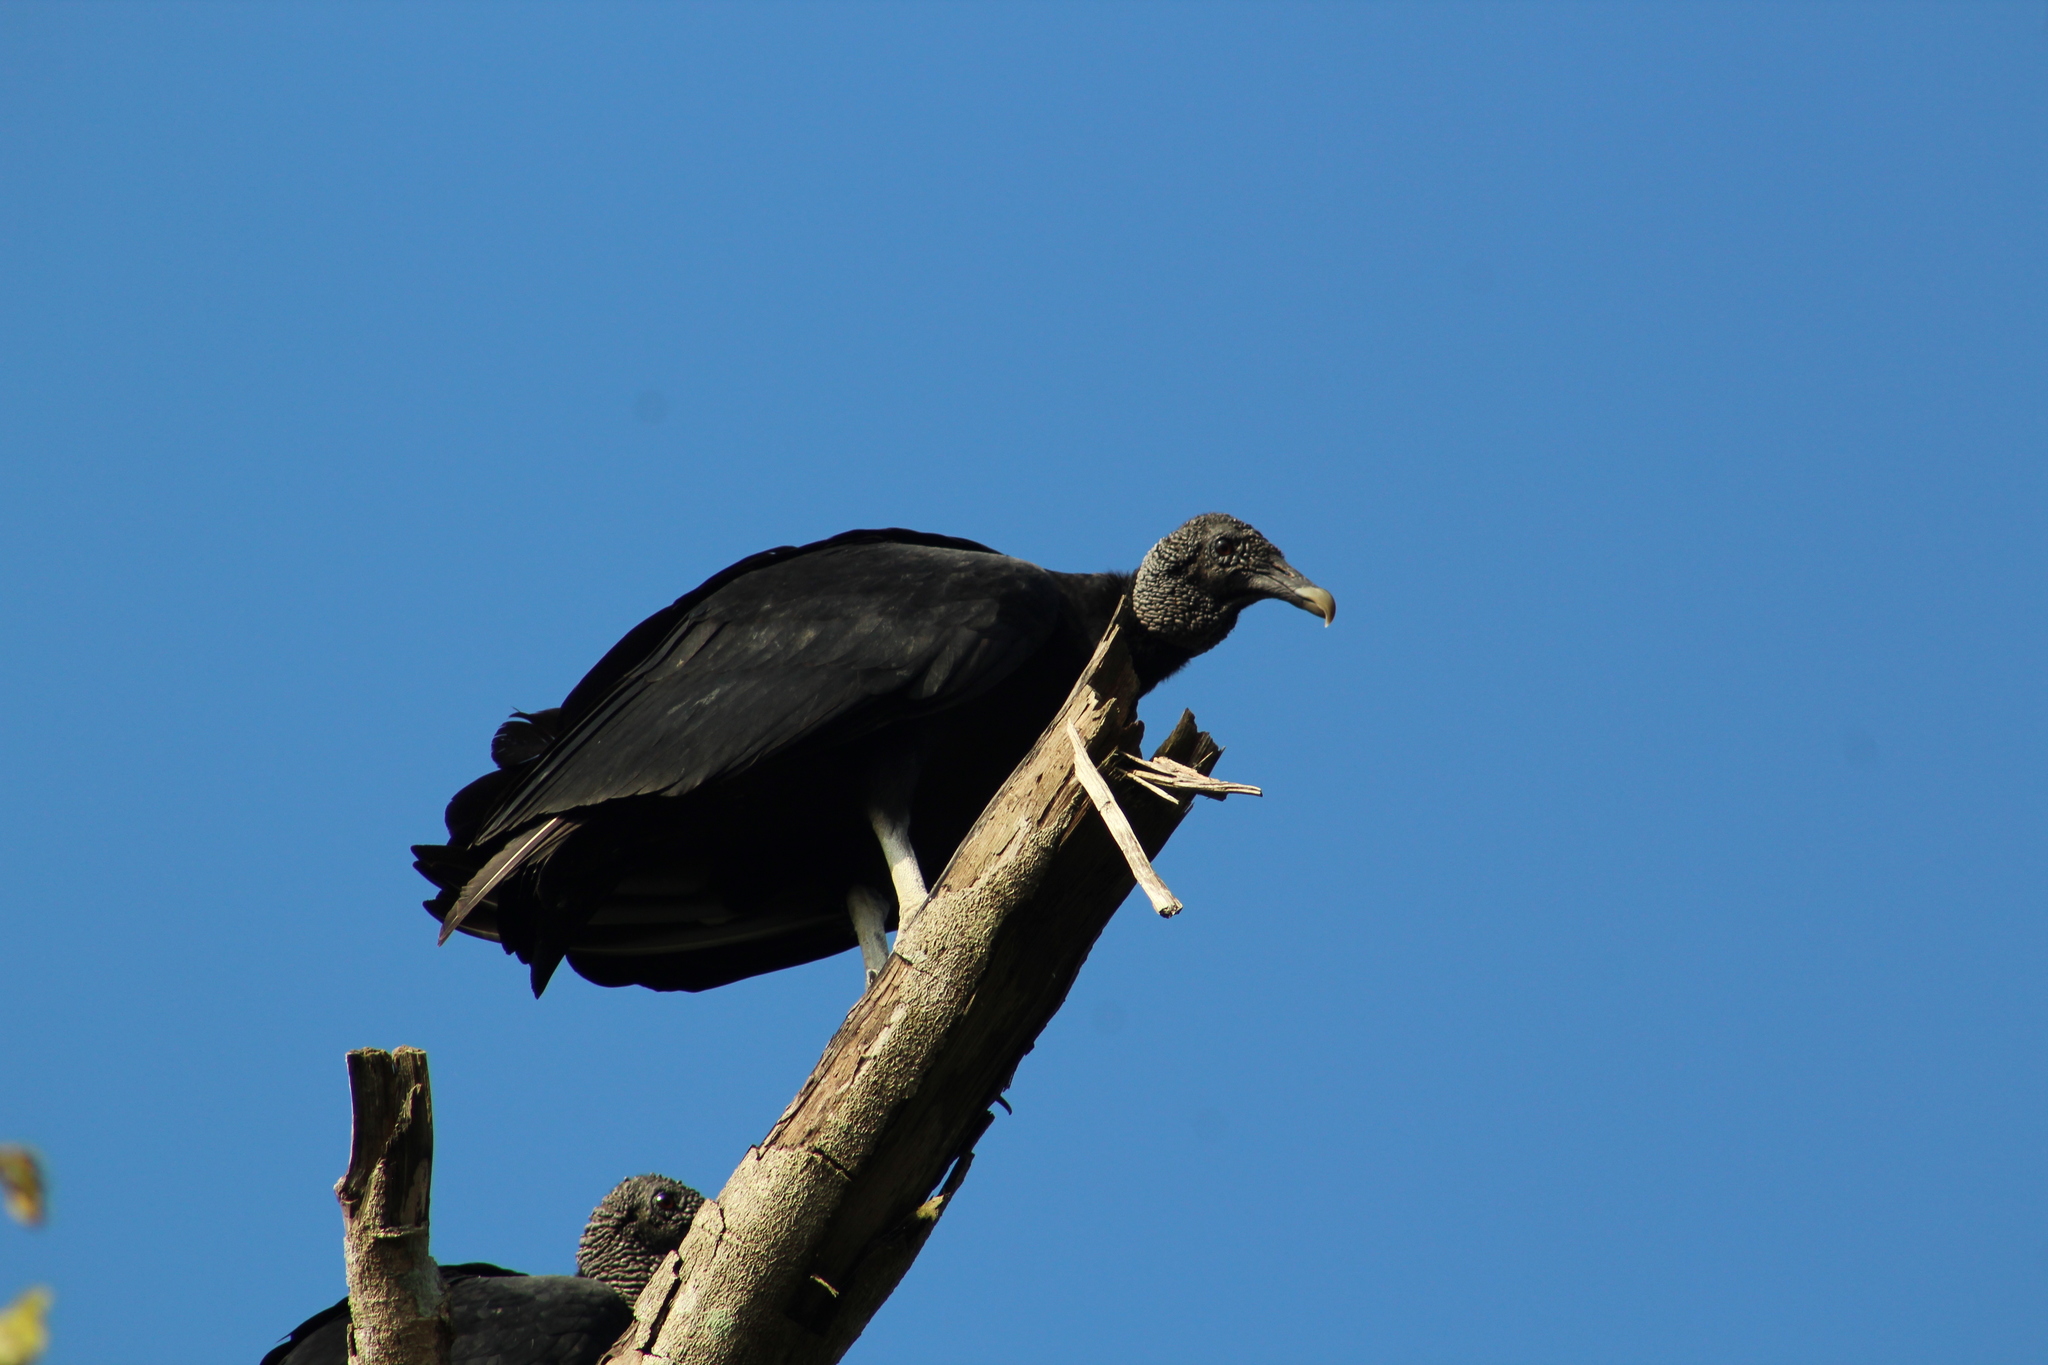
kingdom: Animalia
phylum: Chordata
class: Aves
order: Accipitriformes
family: Cathartidae
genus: Coragyps
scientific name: Coragyps atratus
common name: Black vulture
